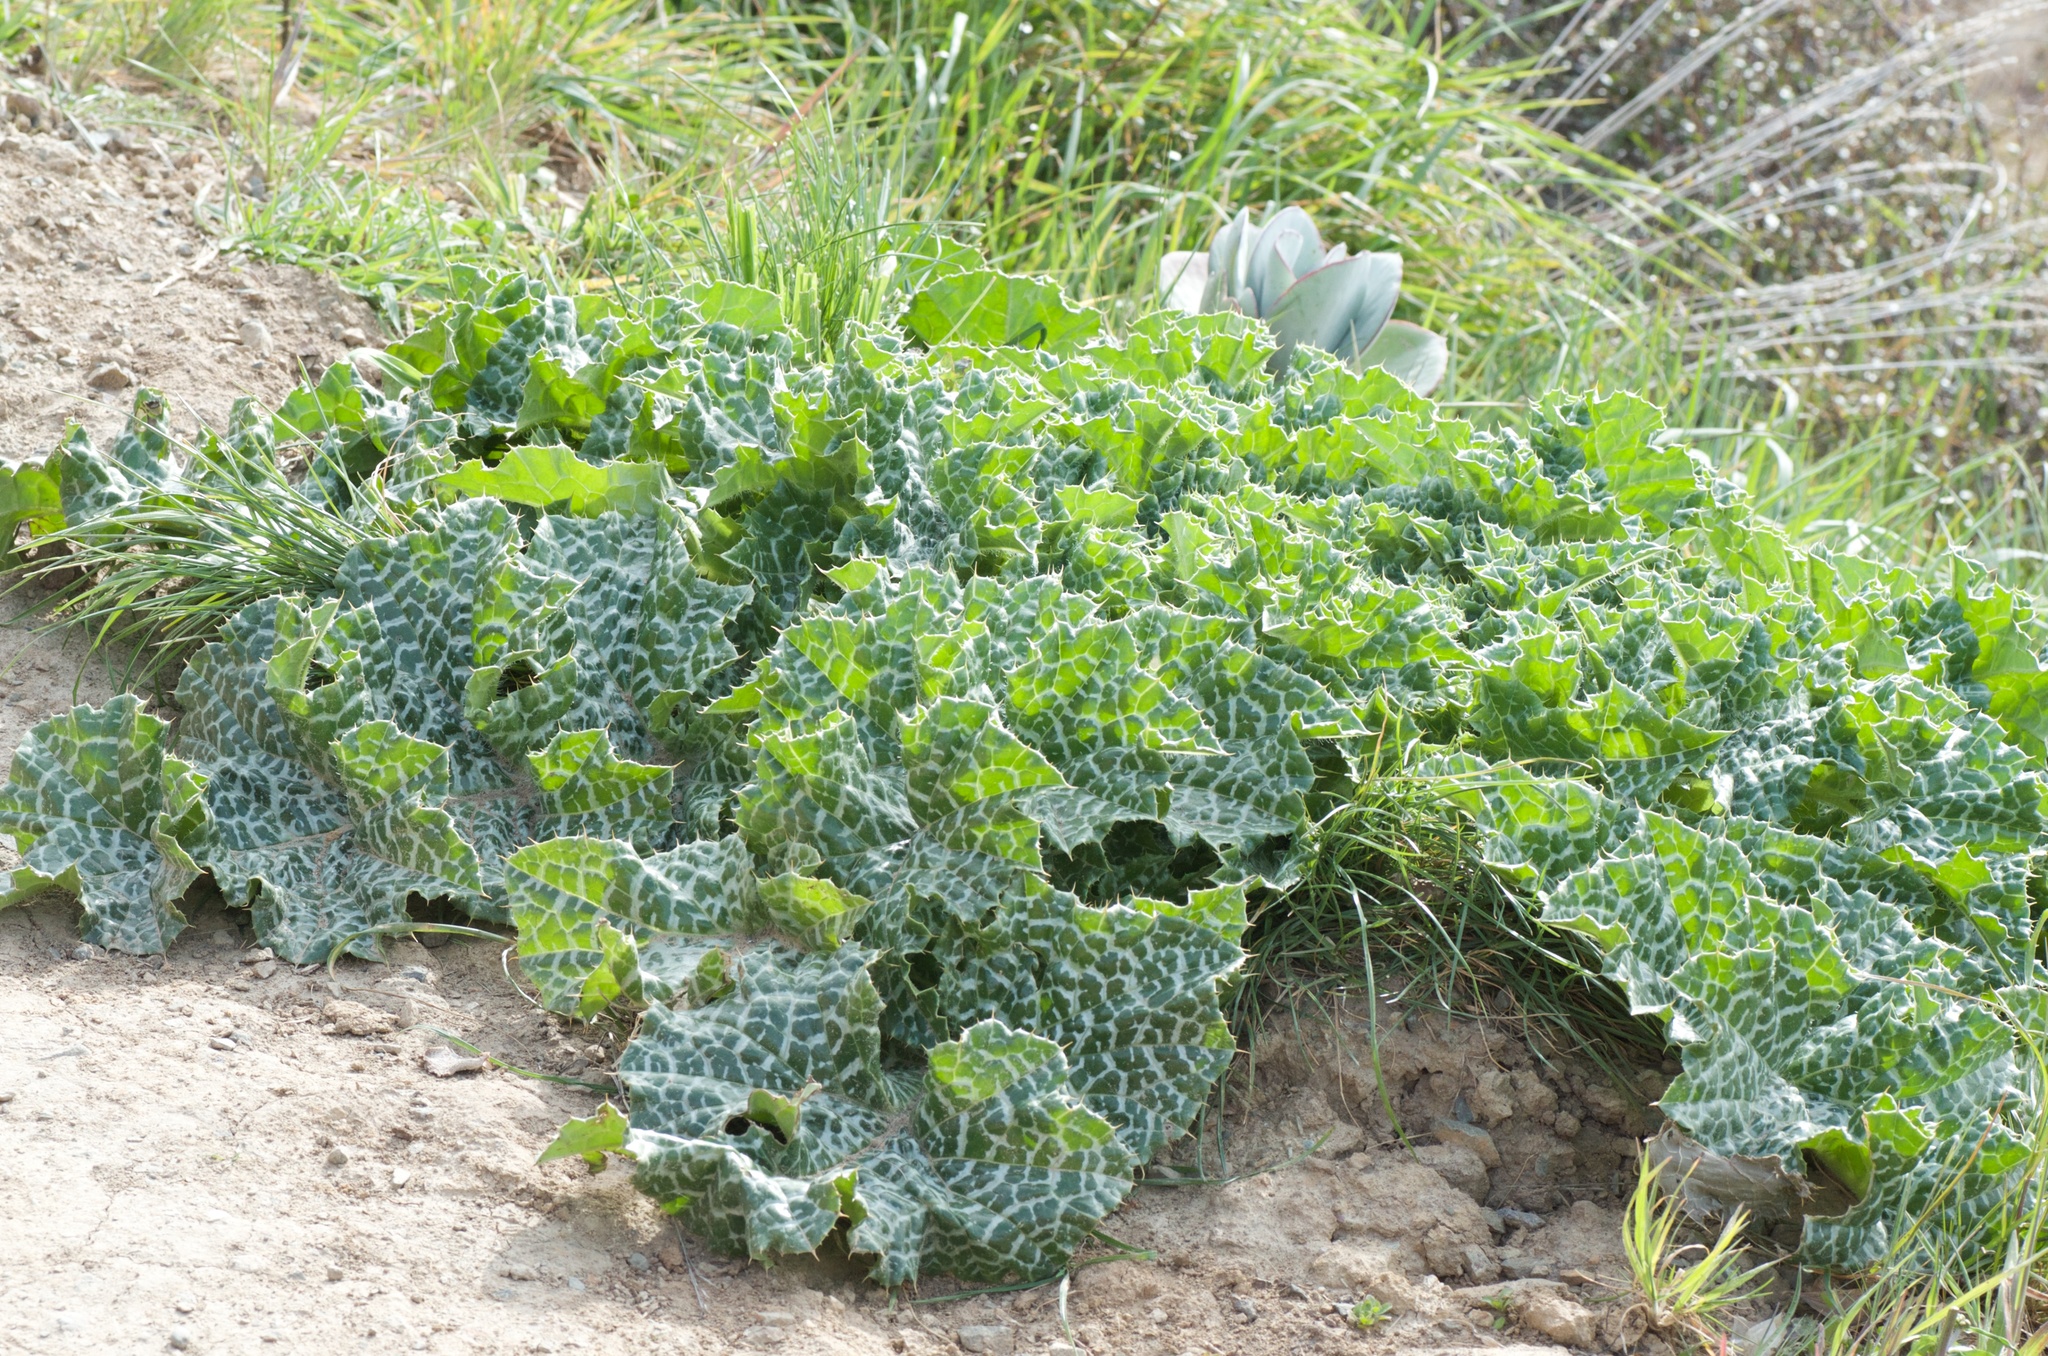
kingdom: Plantae
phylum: Tracheophyta
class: Magnoliopsida
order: Asterales
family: Asteraceae
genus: Silybum
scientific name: Silybum marianum
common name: Milk thistle
